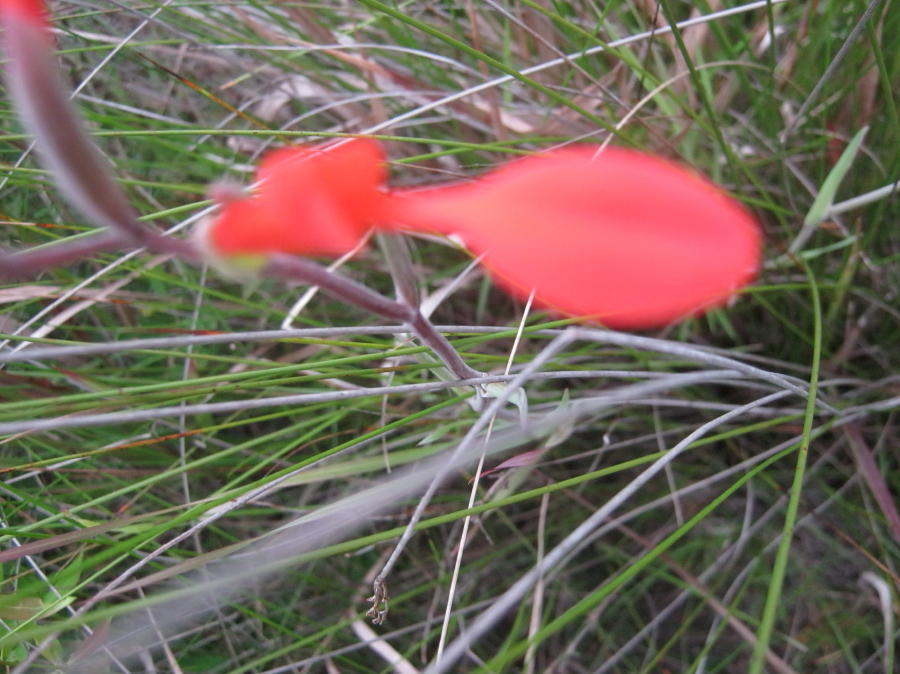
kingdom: Plantae
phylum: Tracheophyta
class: Liliopsida
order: Asparagales
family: Iridaceae
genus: Gladiolus
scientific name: Gladiolus cunonius
